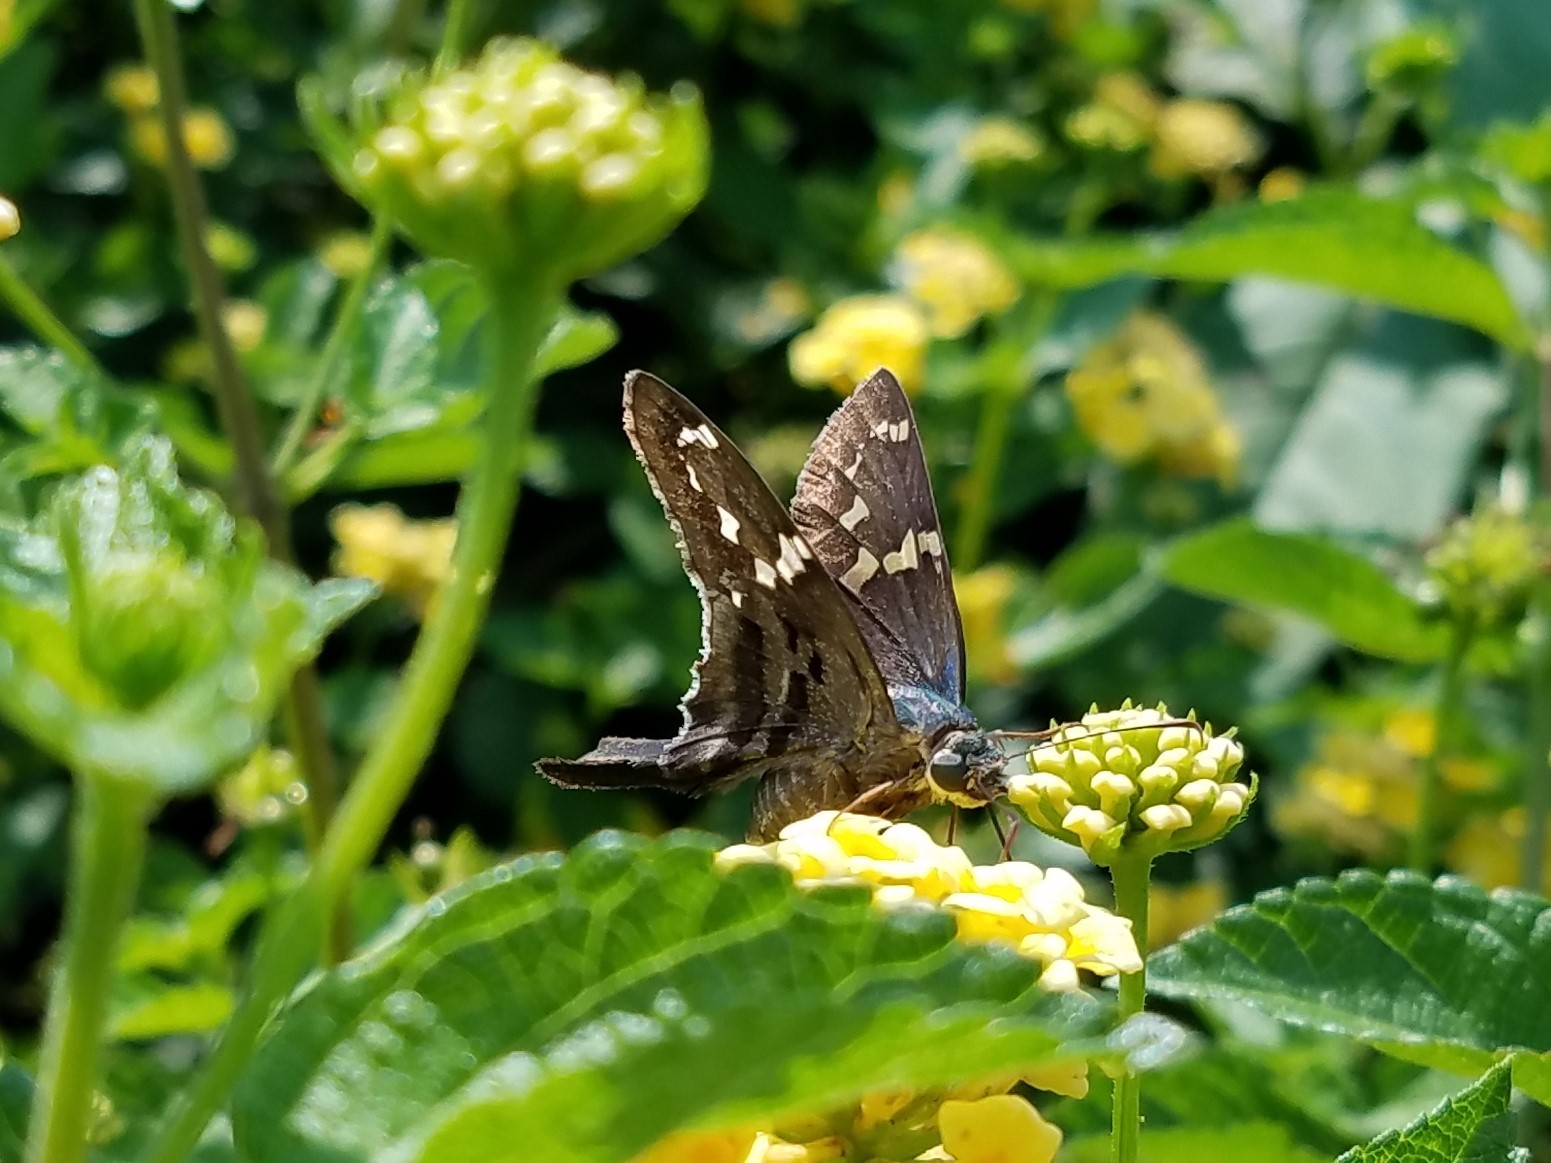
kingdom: Animalia
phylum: Arthropoda
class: Insecta
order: Lepidoptera
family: Hesperiidae
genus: Urbanus
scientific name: Urbanus proteus
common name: Long-tailed skipper
